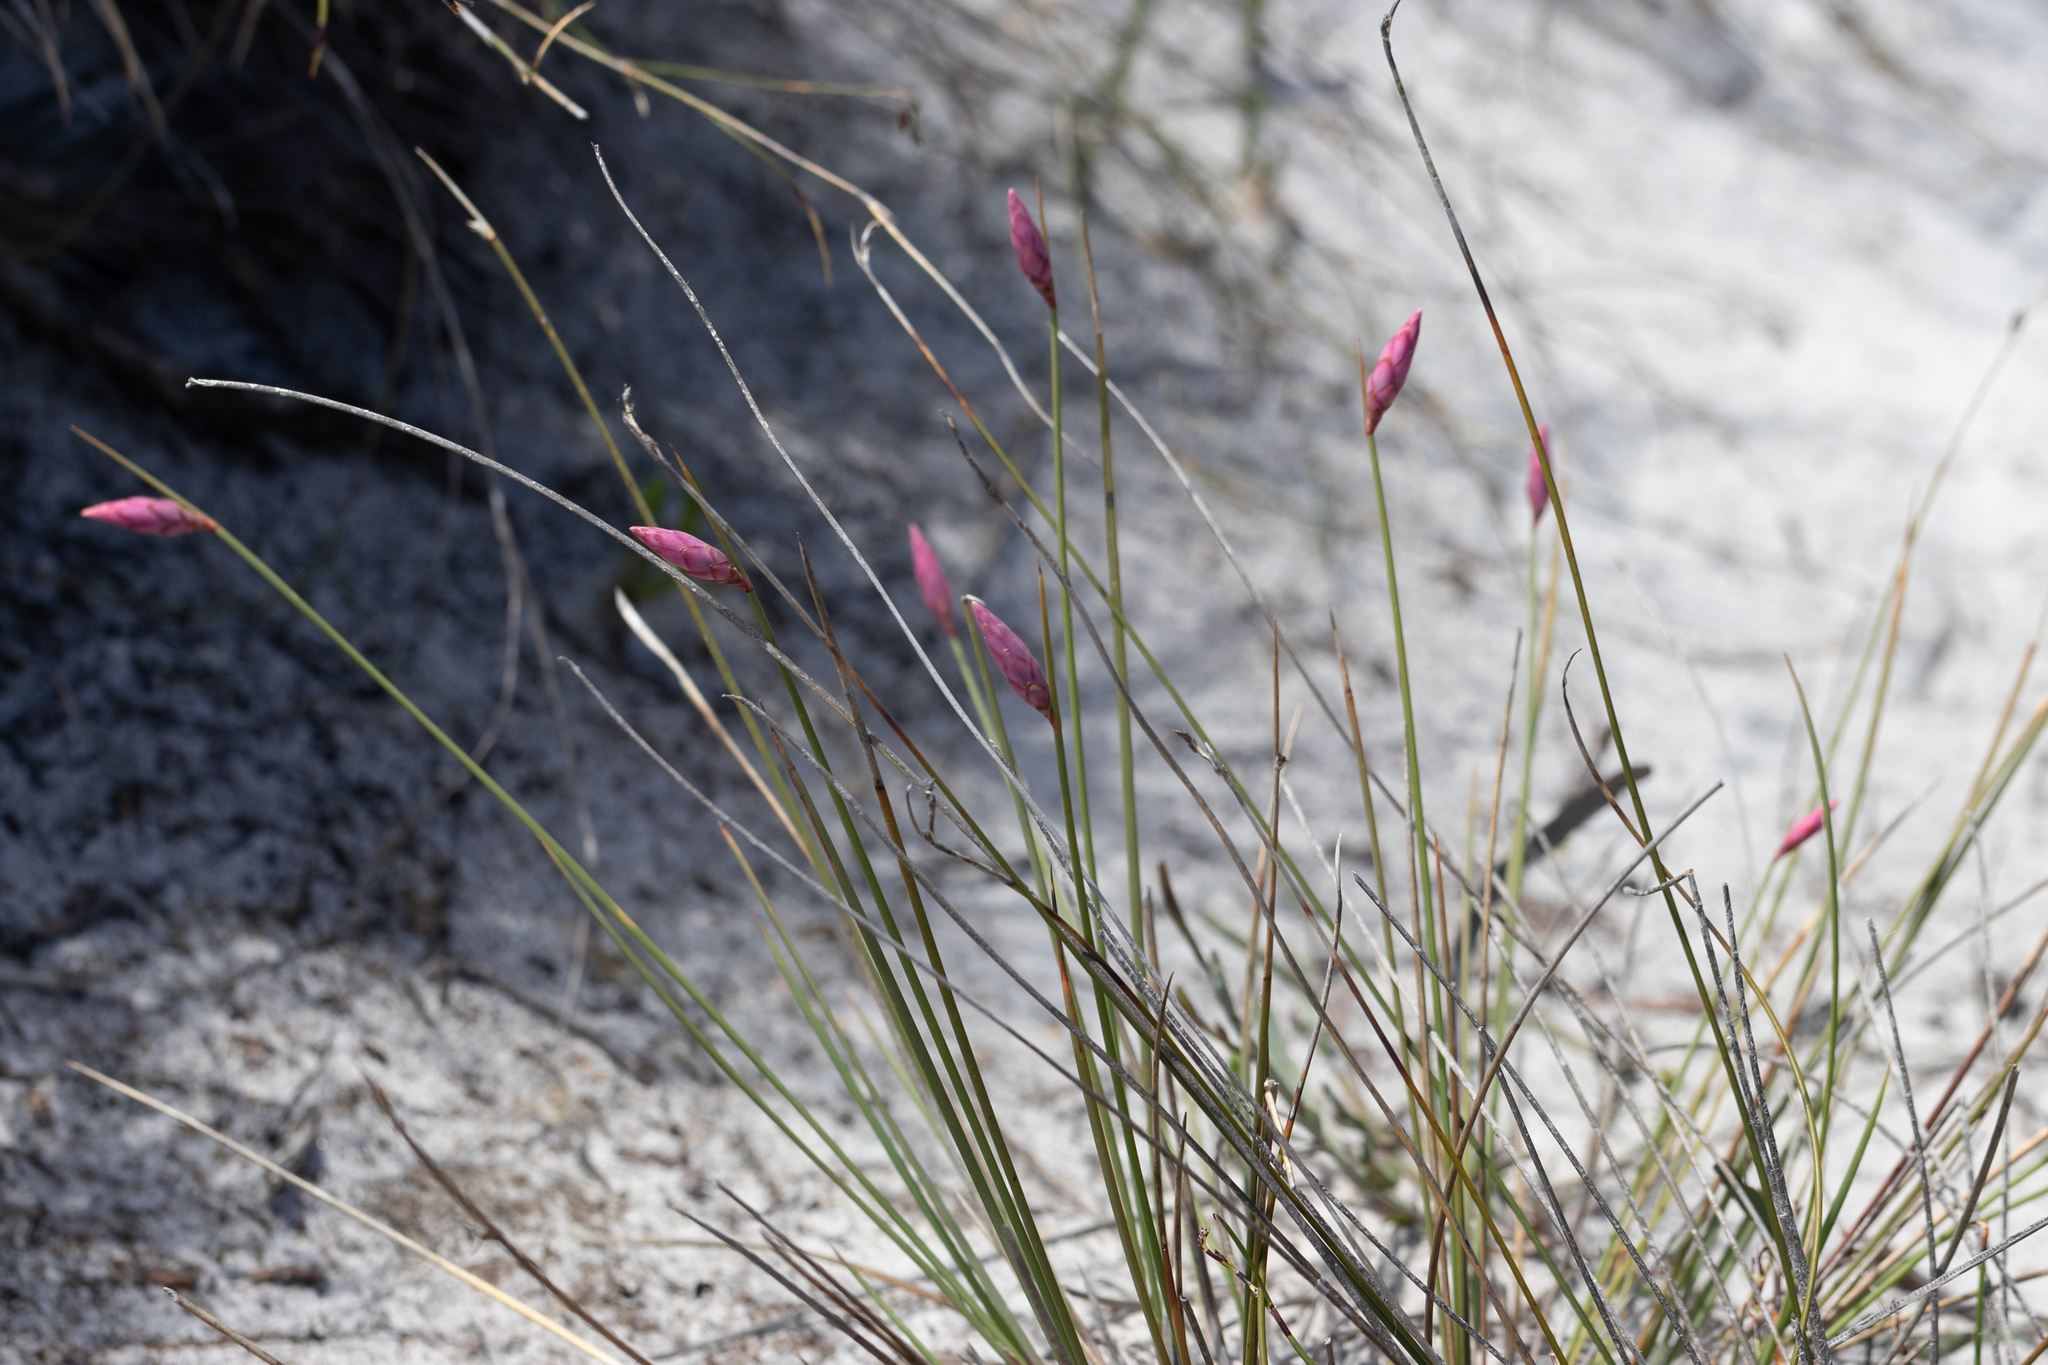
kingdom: Plantae
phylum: Tracheophyta
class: Liliopsida
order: Asparagales
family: Asphodelaceae
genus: Johnsonia
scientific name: Johnsonia teretifolia
